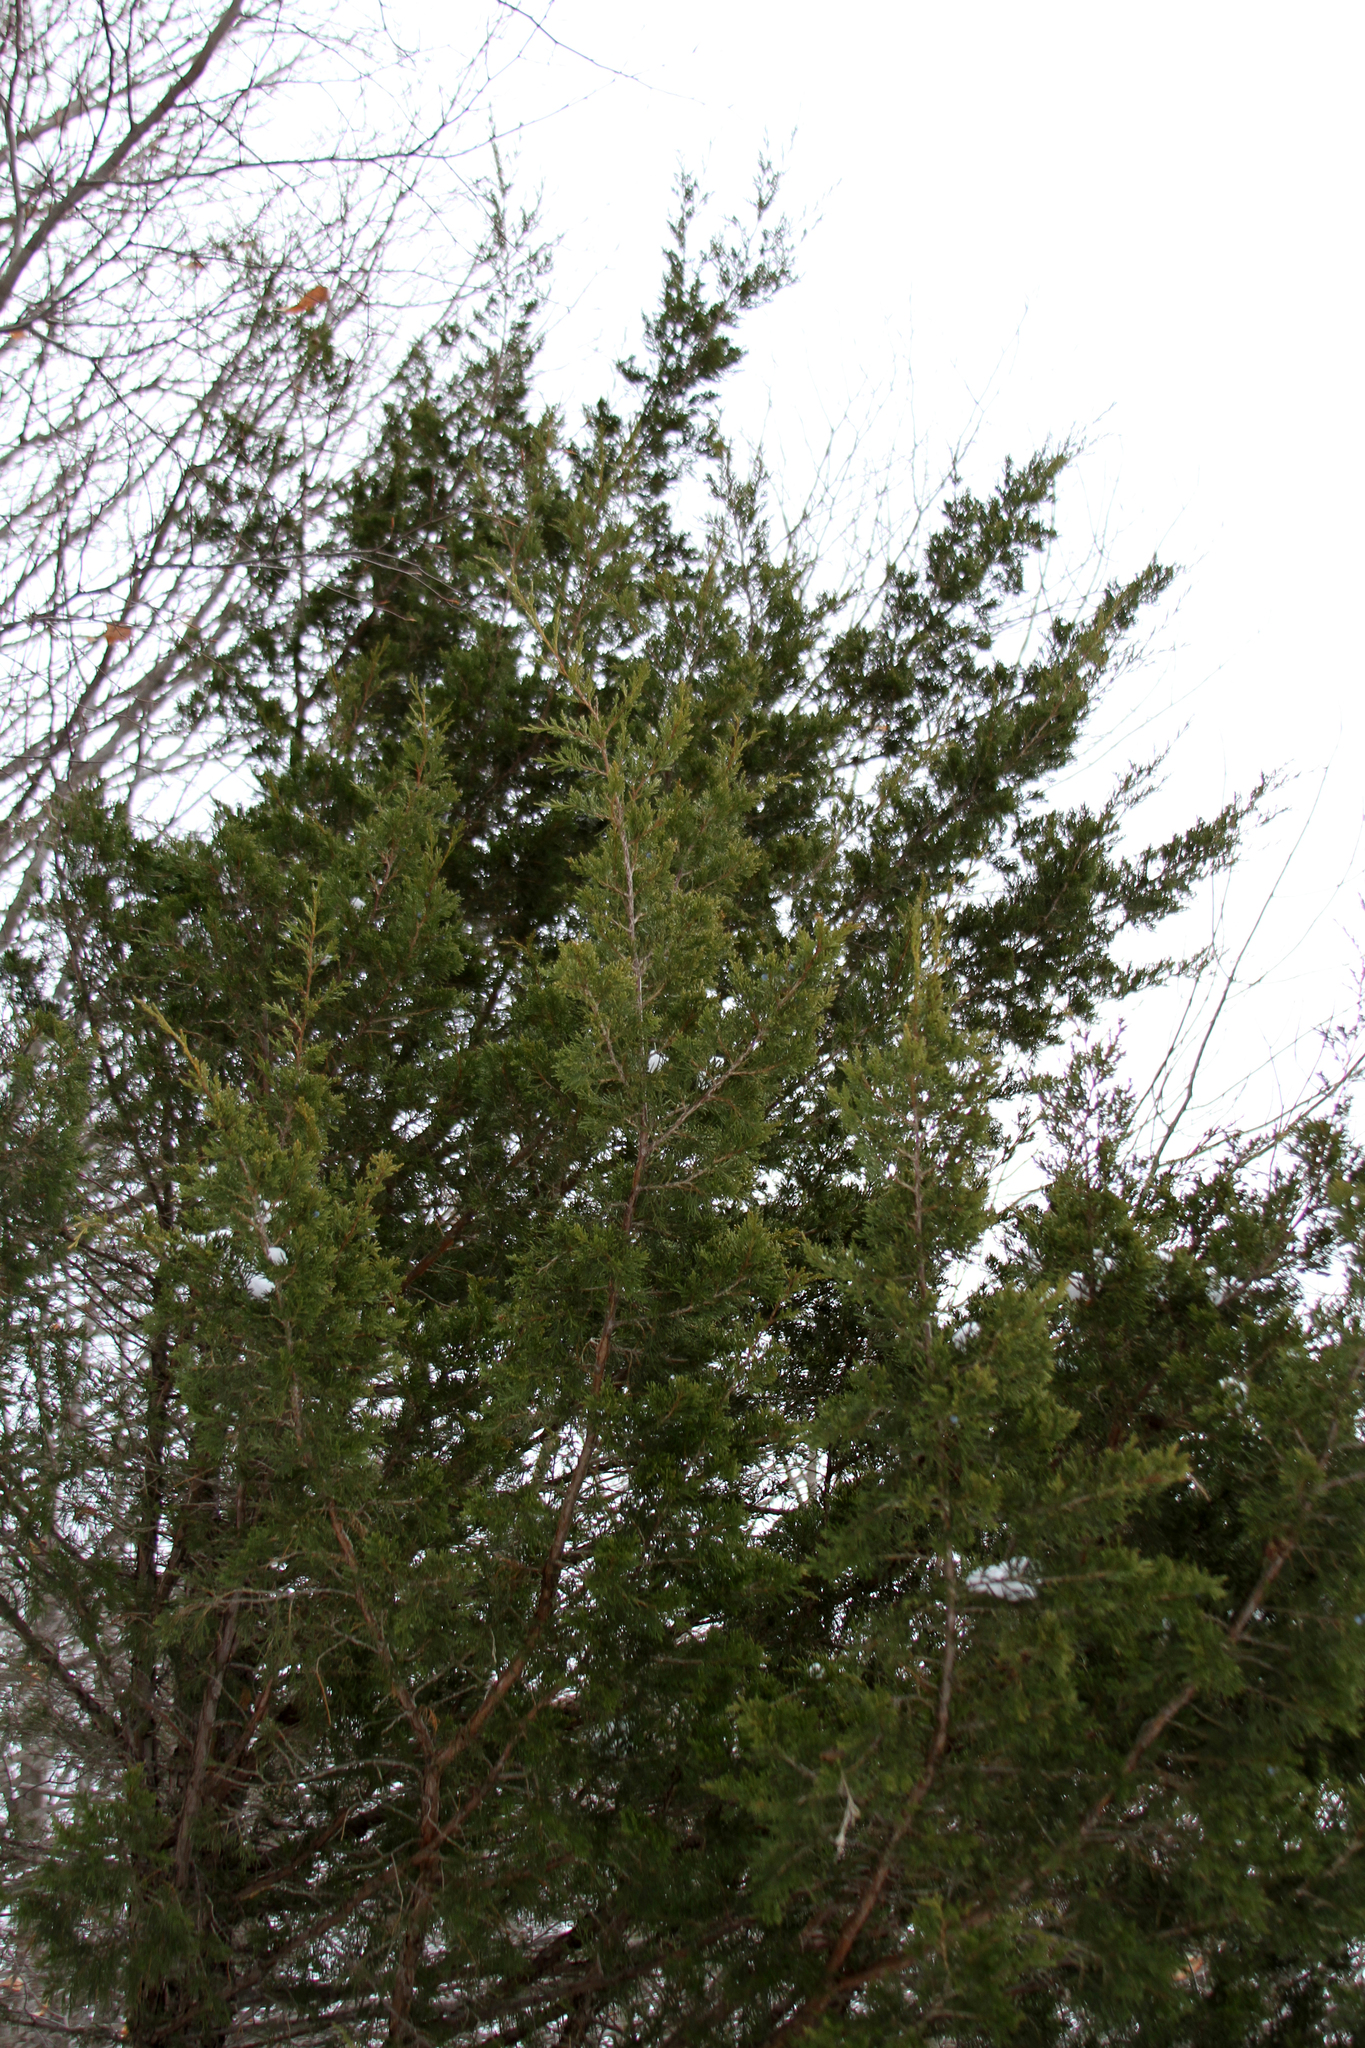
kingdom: Plantae
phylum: Tracheophyta
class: Pinopsida
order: Pinales
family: Cupressaceae
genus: Juniperus
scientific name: Juniperus virginiana
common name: Red juniper
